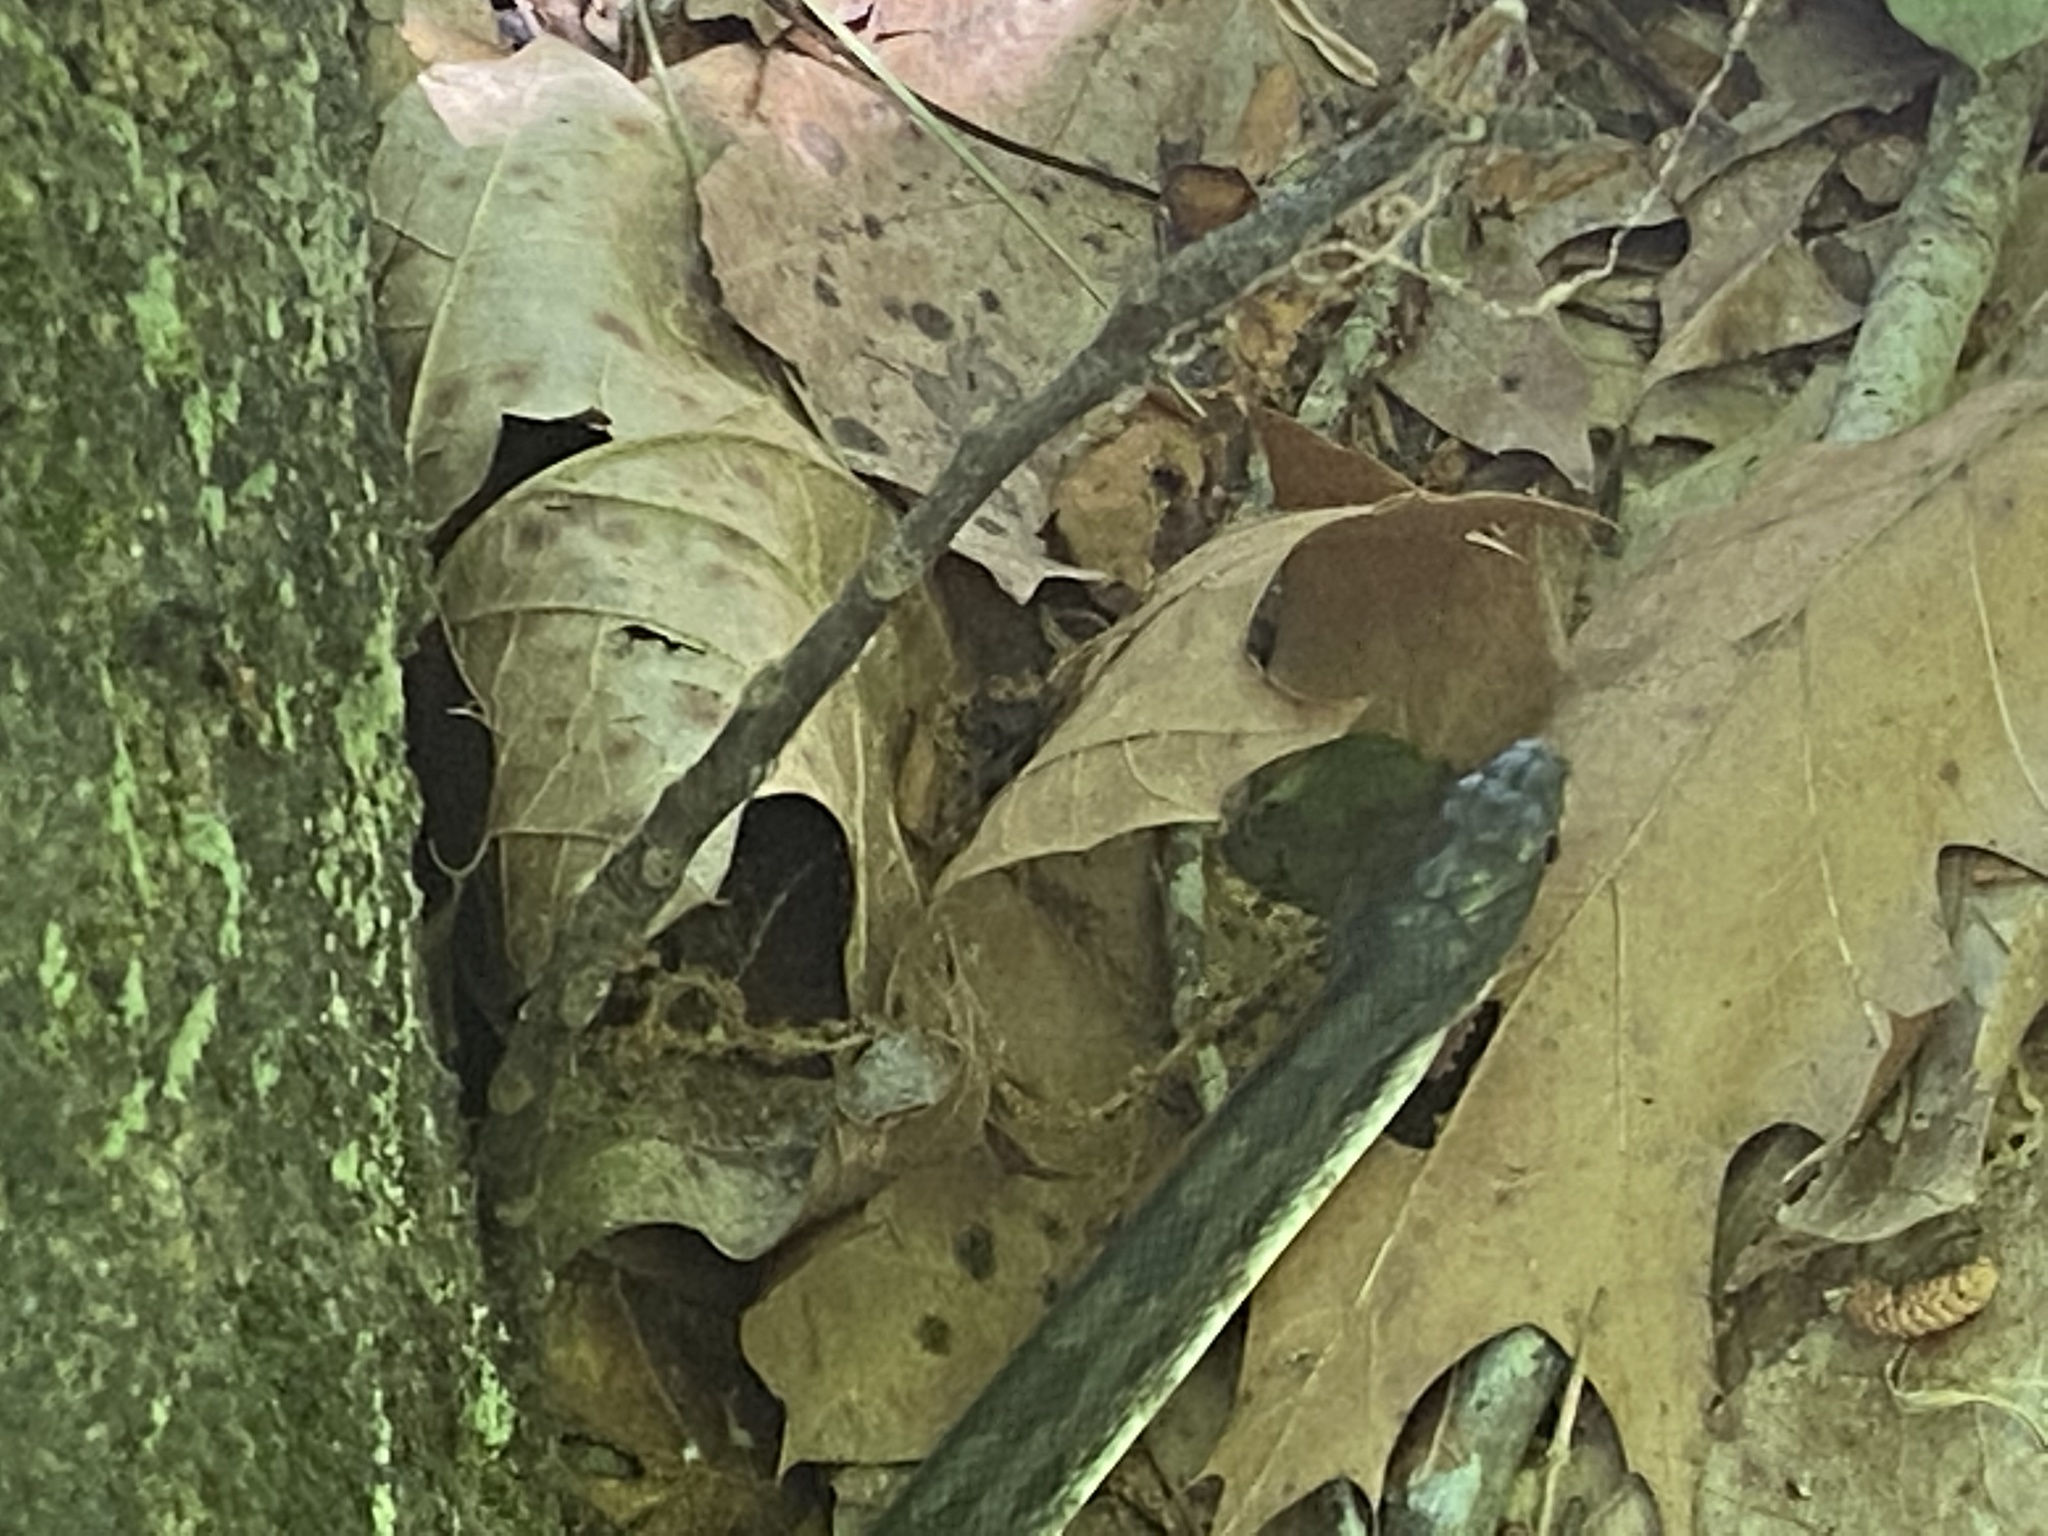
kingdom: Animalia
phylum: Chordata
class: Squamata
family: Colubridae
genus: Pantherophis
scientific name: Pantherophis alleghaniensis
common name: Eastern rat snake
